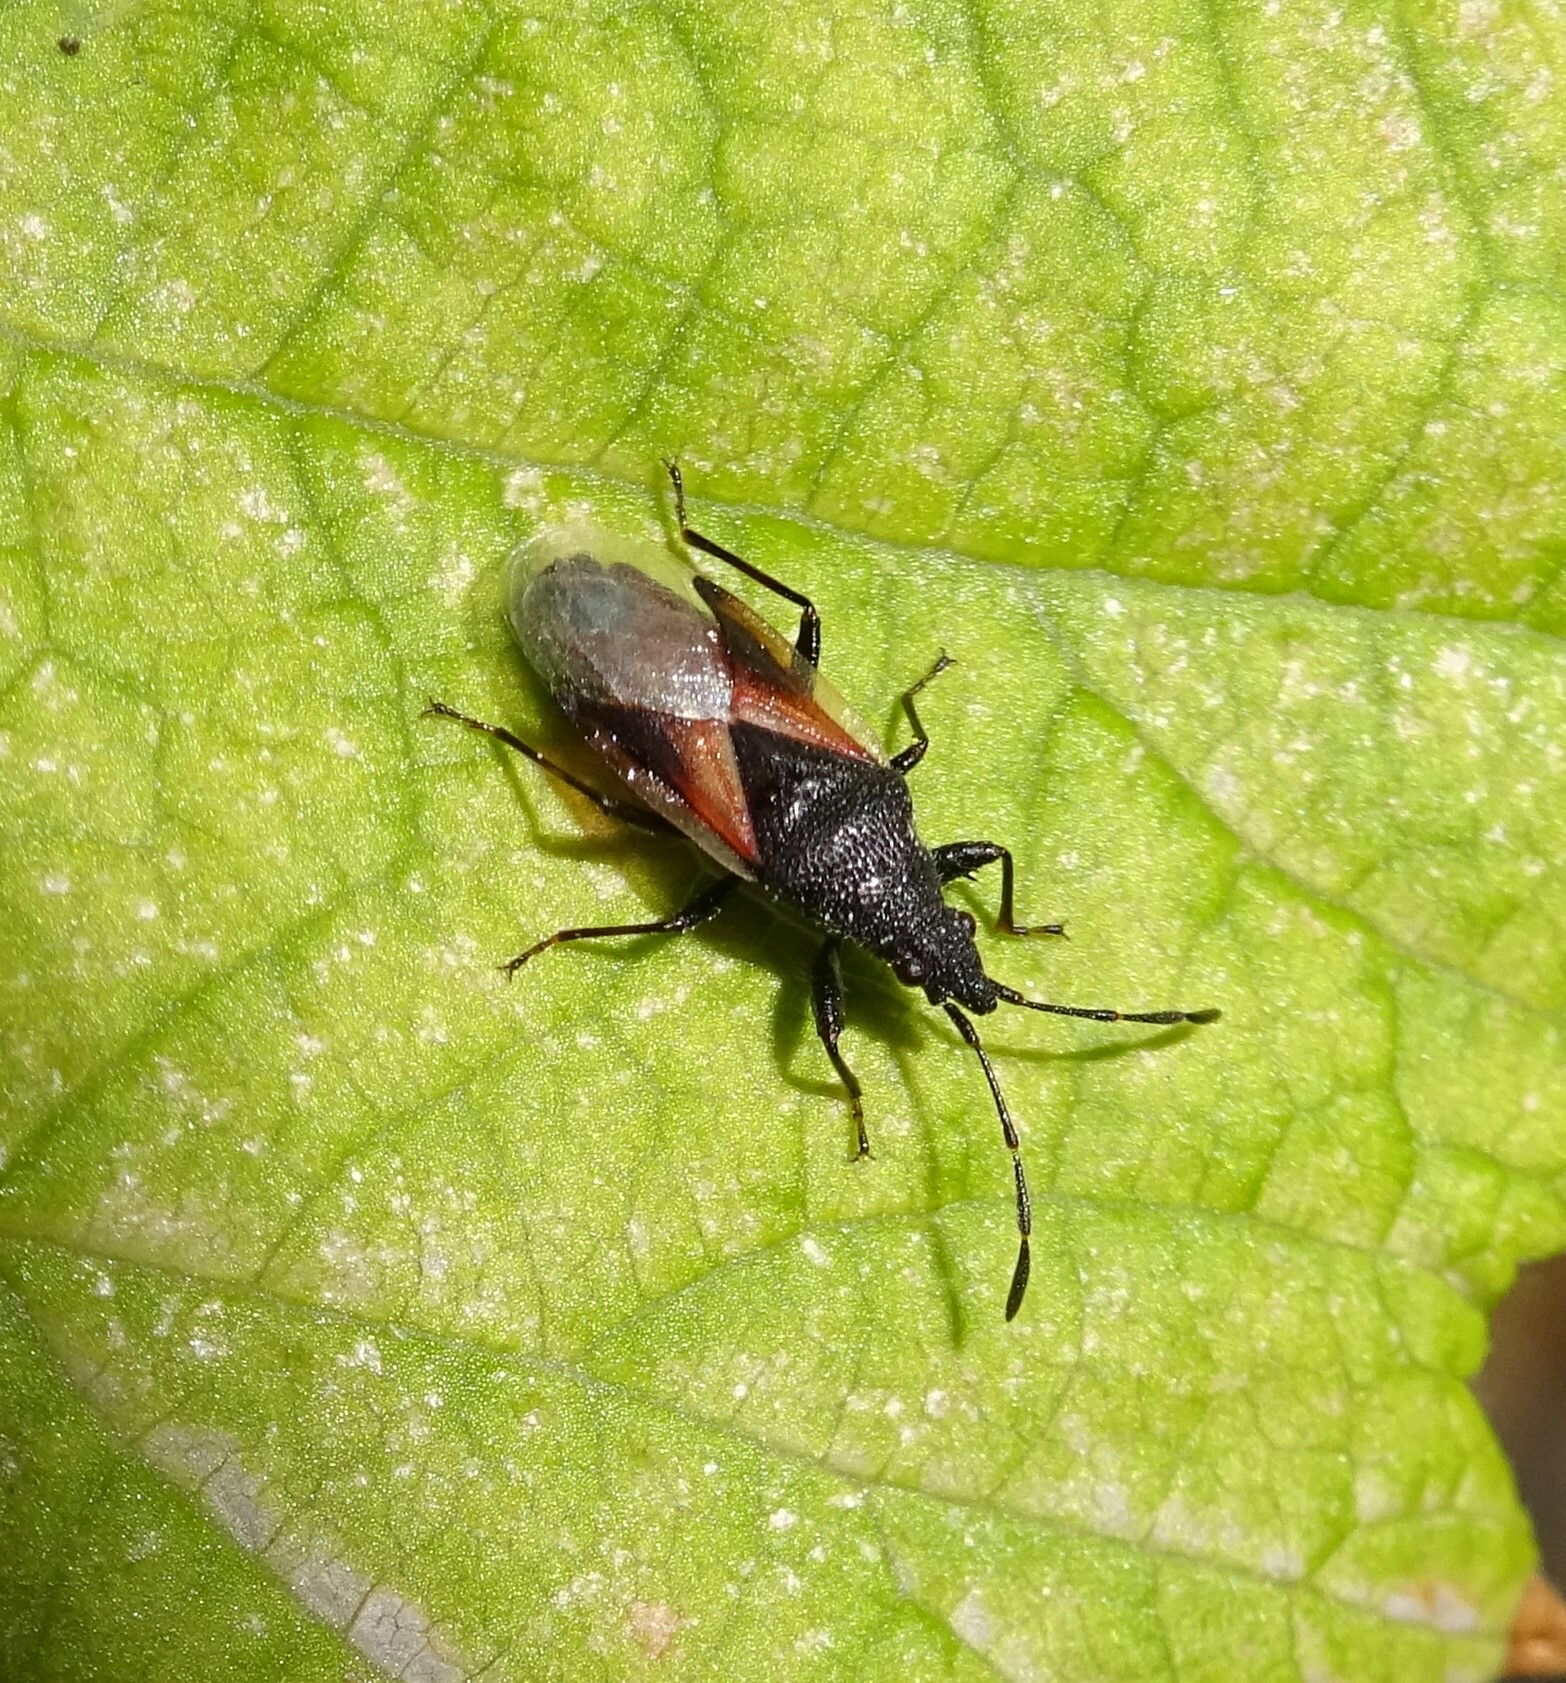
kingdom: Animalia
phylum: Arthropoda
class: Insecta
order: Hemiptera
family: Oxycarenidae
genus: Oxycarenus
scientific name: Oxycarenus lavaterae
